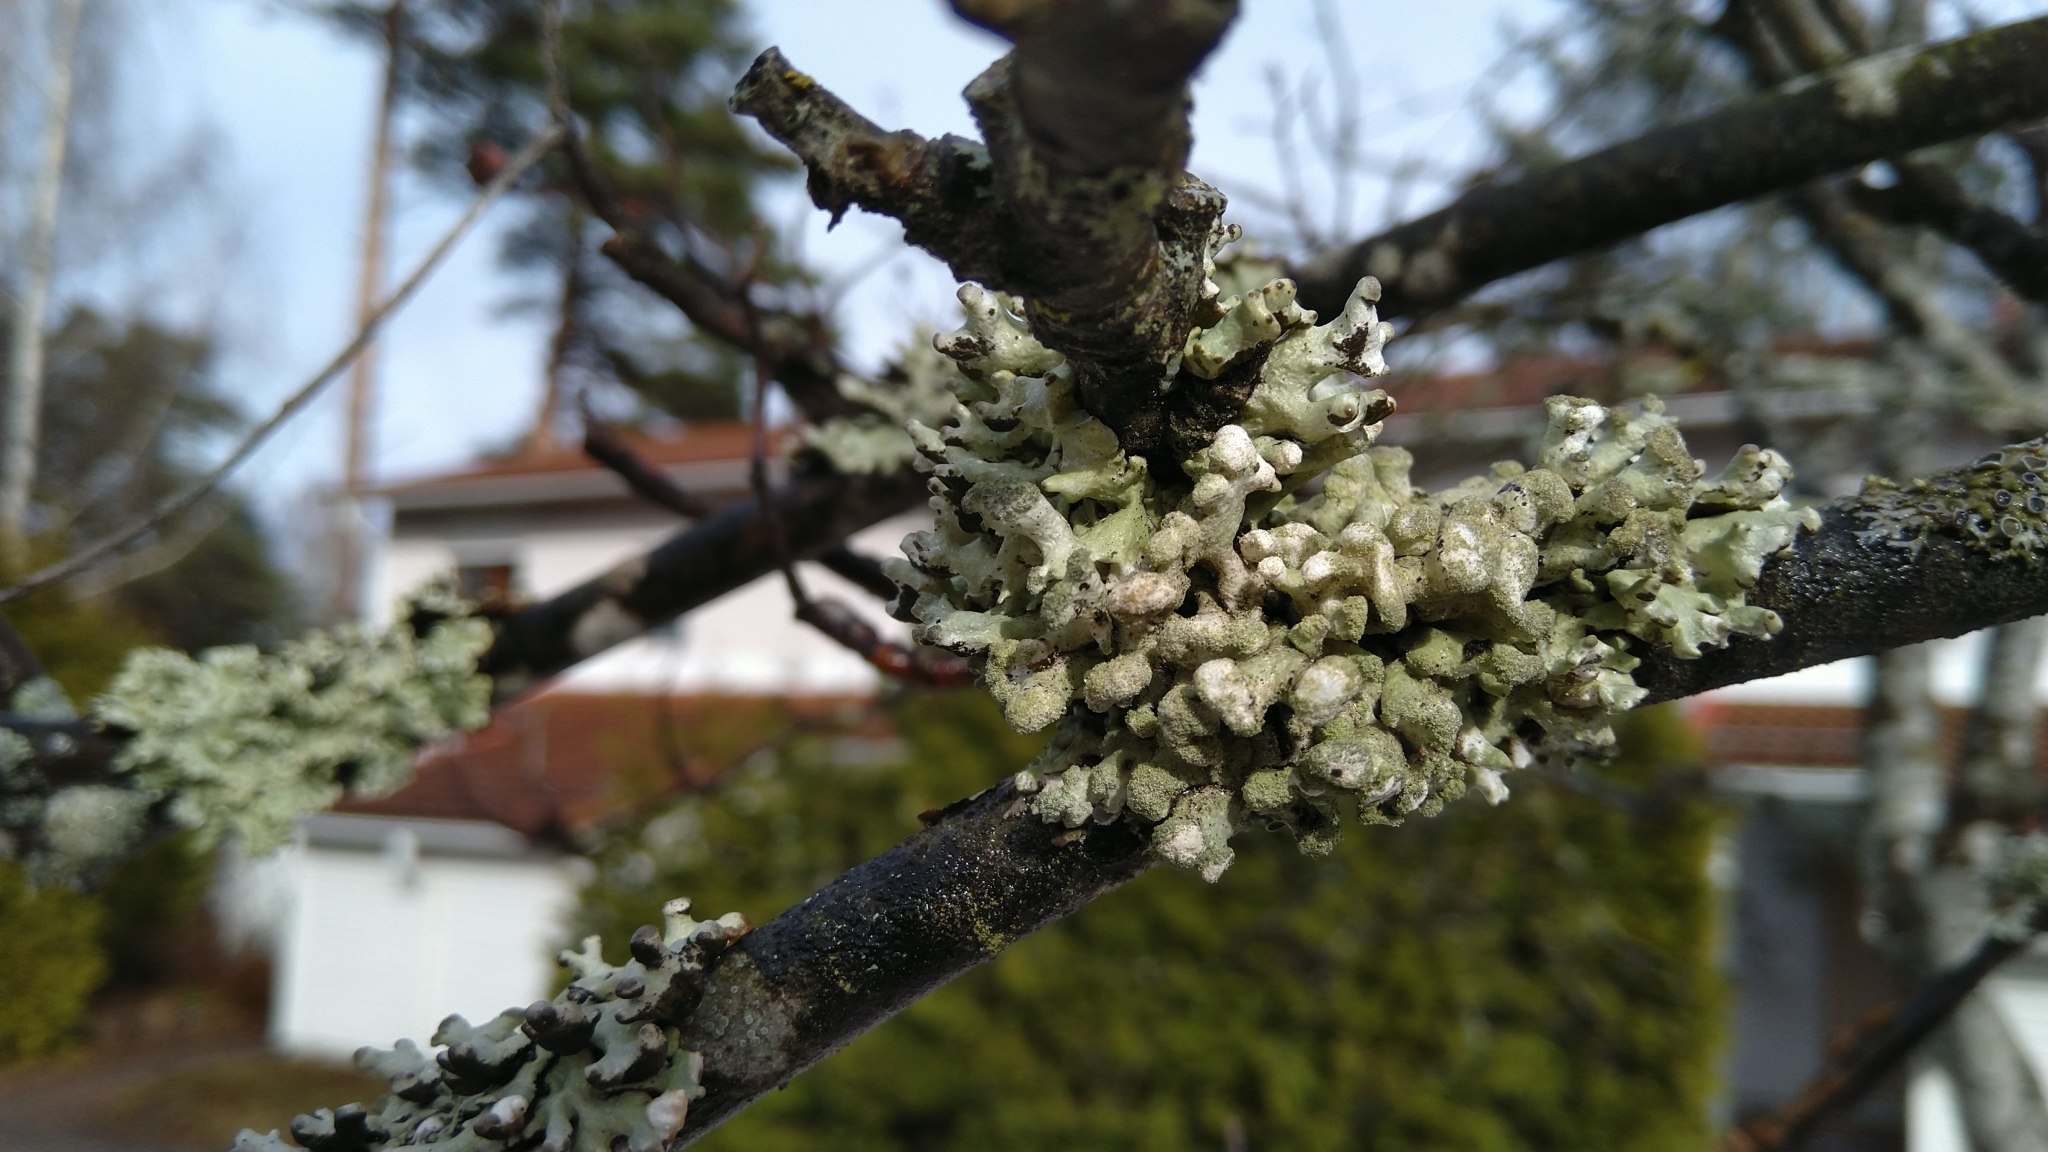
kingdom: Fungi
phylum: Ascomycota
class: Lecanoromycetes
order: Lecanorales
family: Parmeliaceae
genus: Hypogymnia
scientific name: Hypogymnia tubulosa
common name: Powder-headed tube lichen
